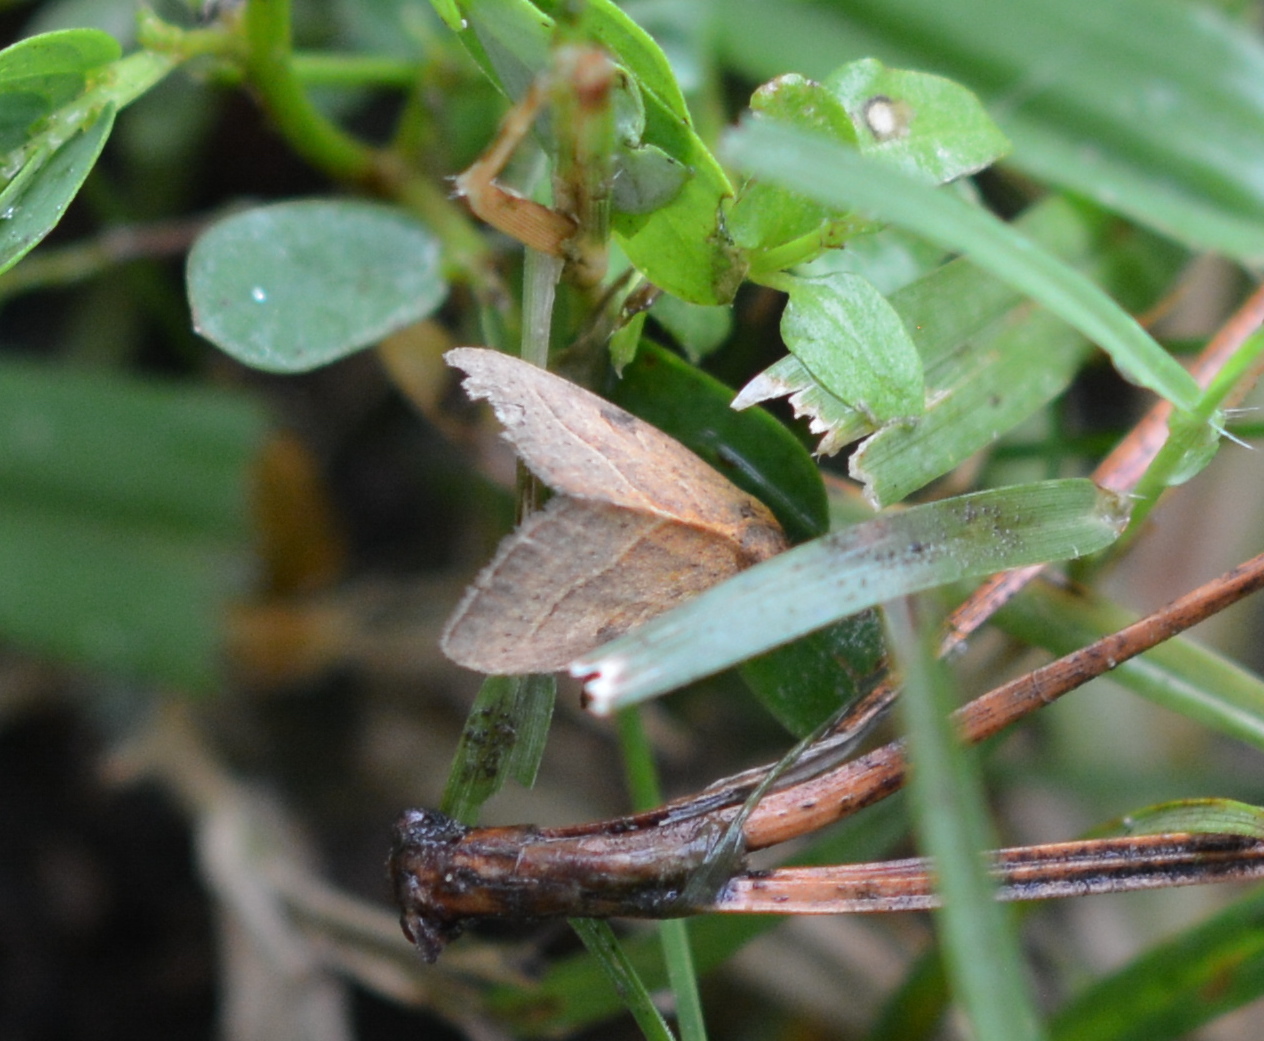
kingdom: Animalia
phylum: Arthropoda
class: Insecta
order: Lepidoptera
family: Noctuidae
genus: Galgula
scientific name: Galgula partita
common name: Wedgeling
